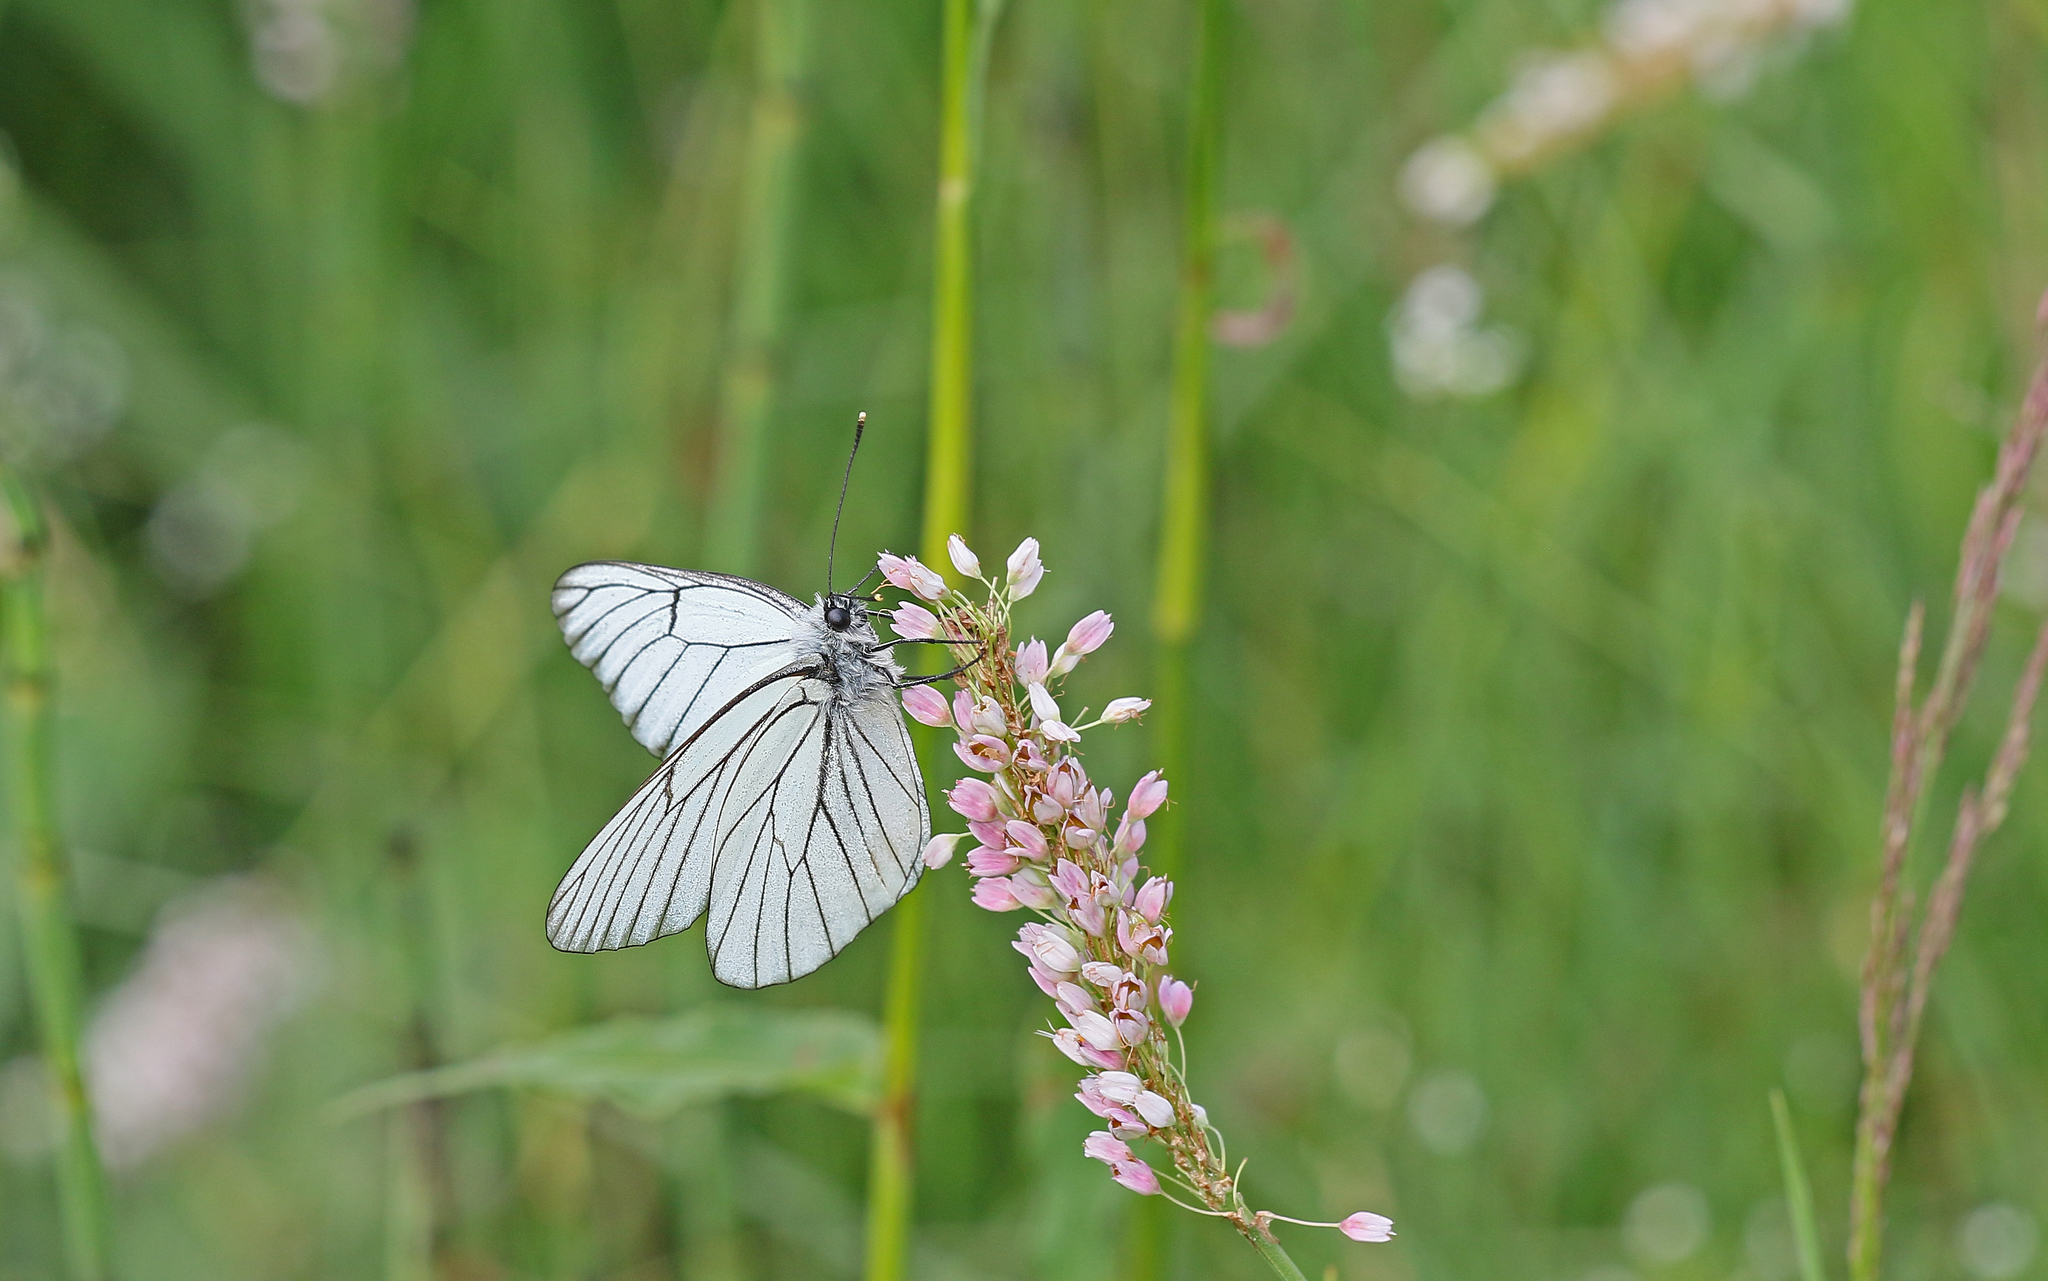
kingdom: Animalia
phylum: Arthropoda
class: Insecta
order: Lepidoptera
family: Pieridae
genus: Aporia
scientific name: Aporia crataegi
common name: Black-veined white
